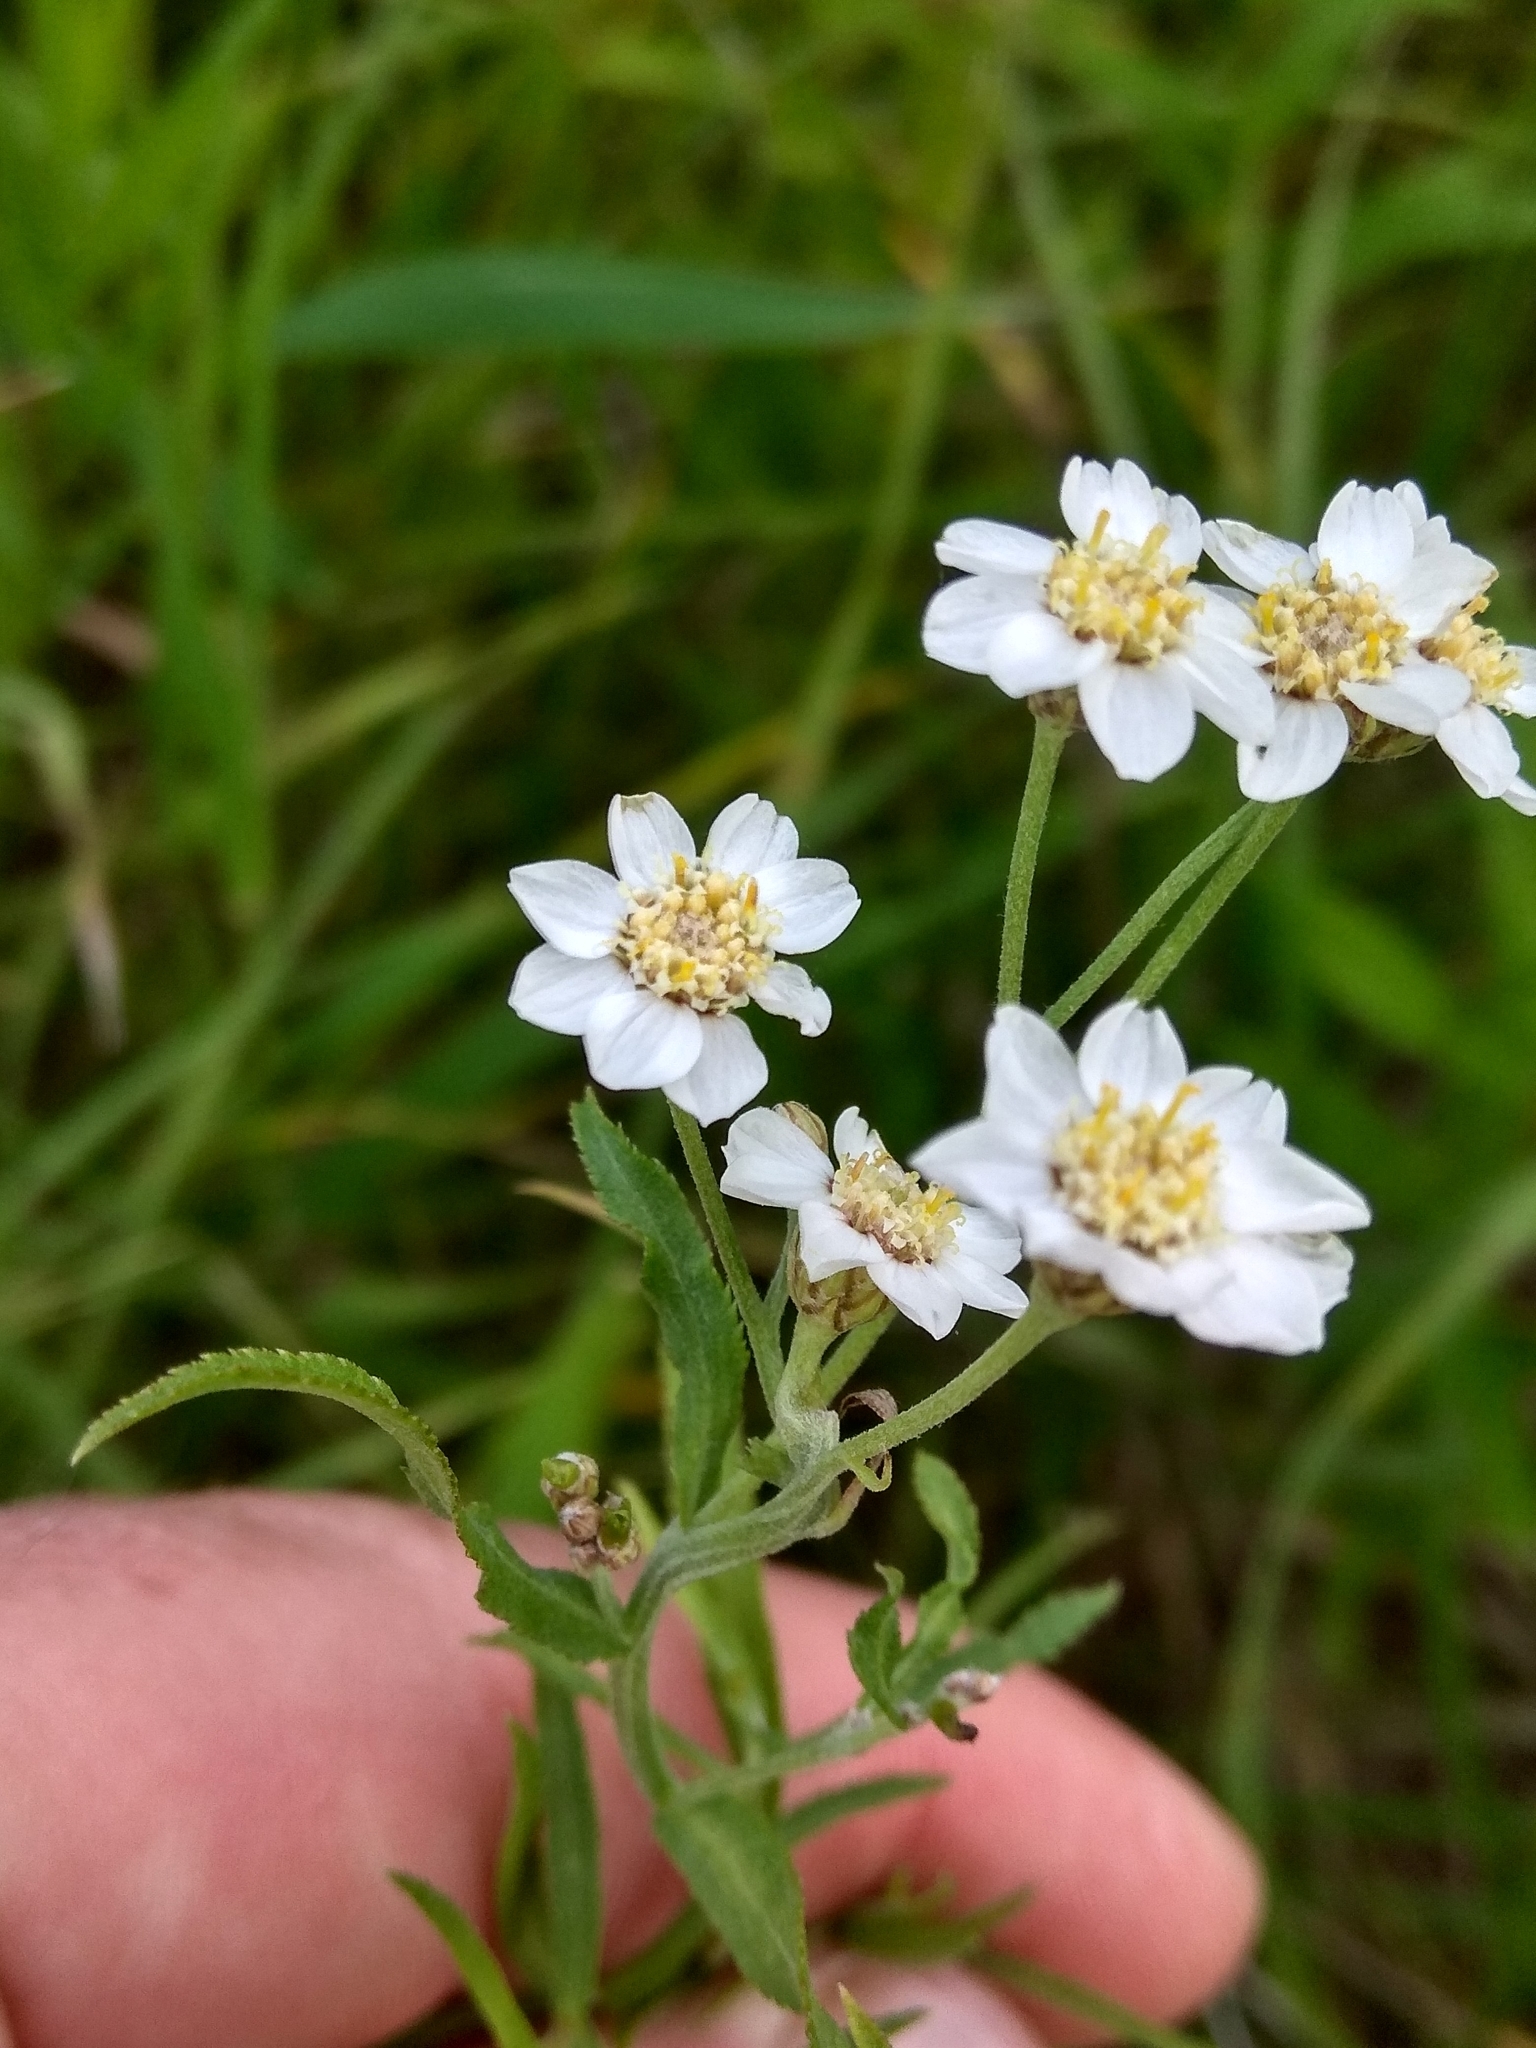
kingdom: Plantae
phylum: Tracheophyta
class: Magnoliopsida
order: Asterales
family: Asteraceae
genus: Achillea
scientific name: Achillea salicifolia
